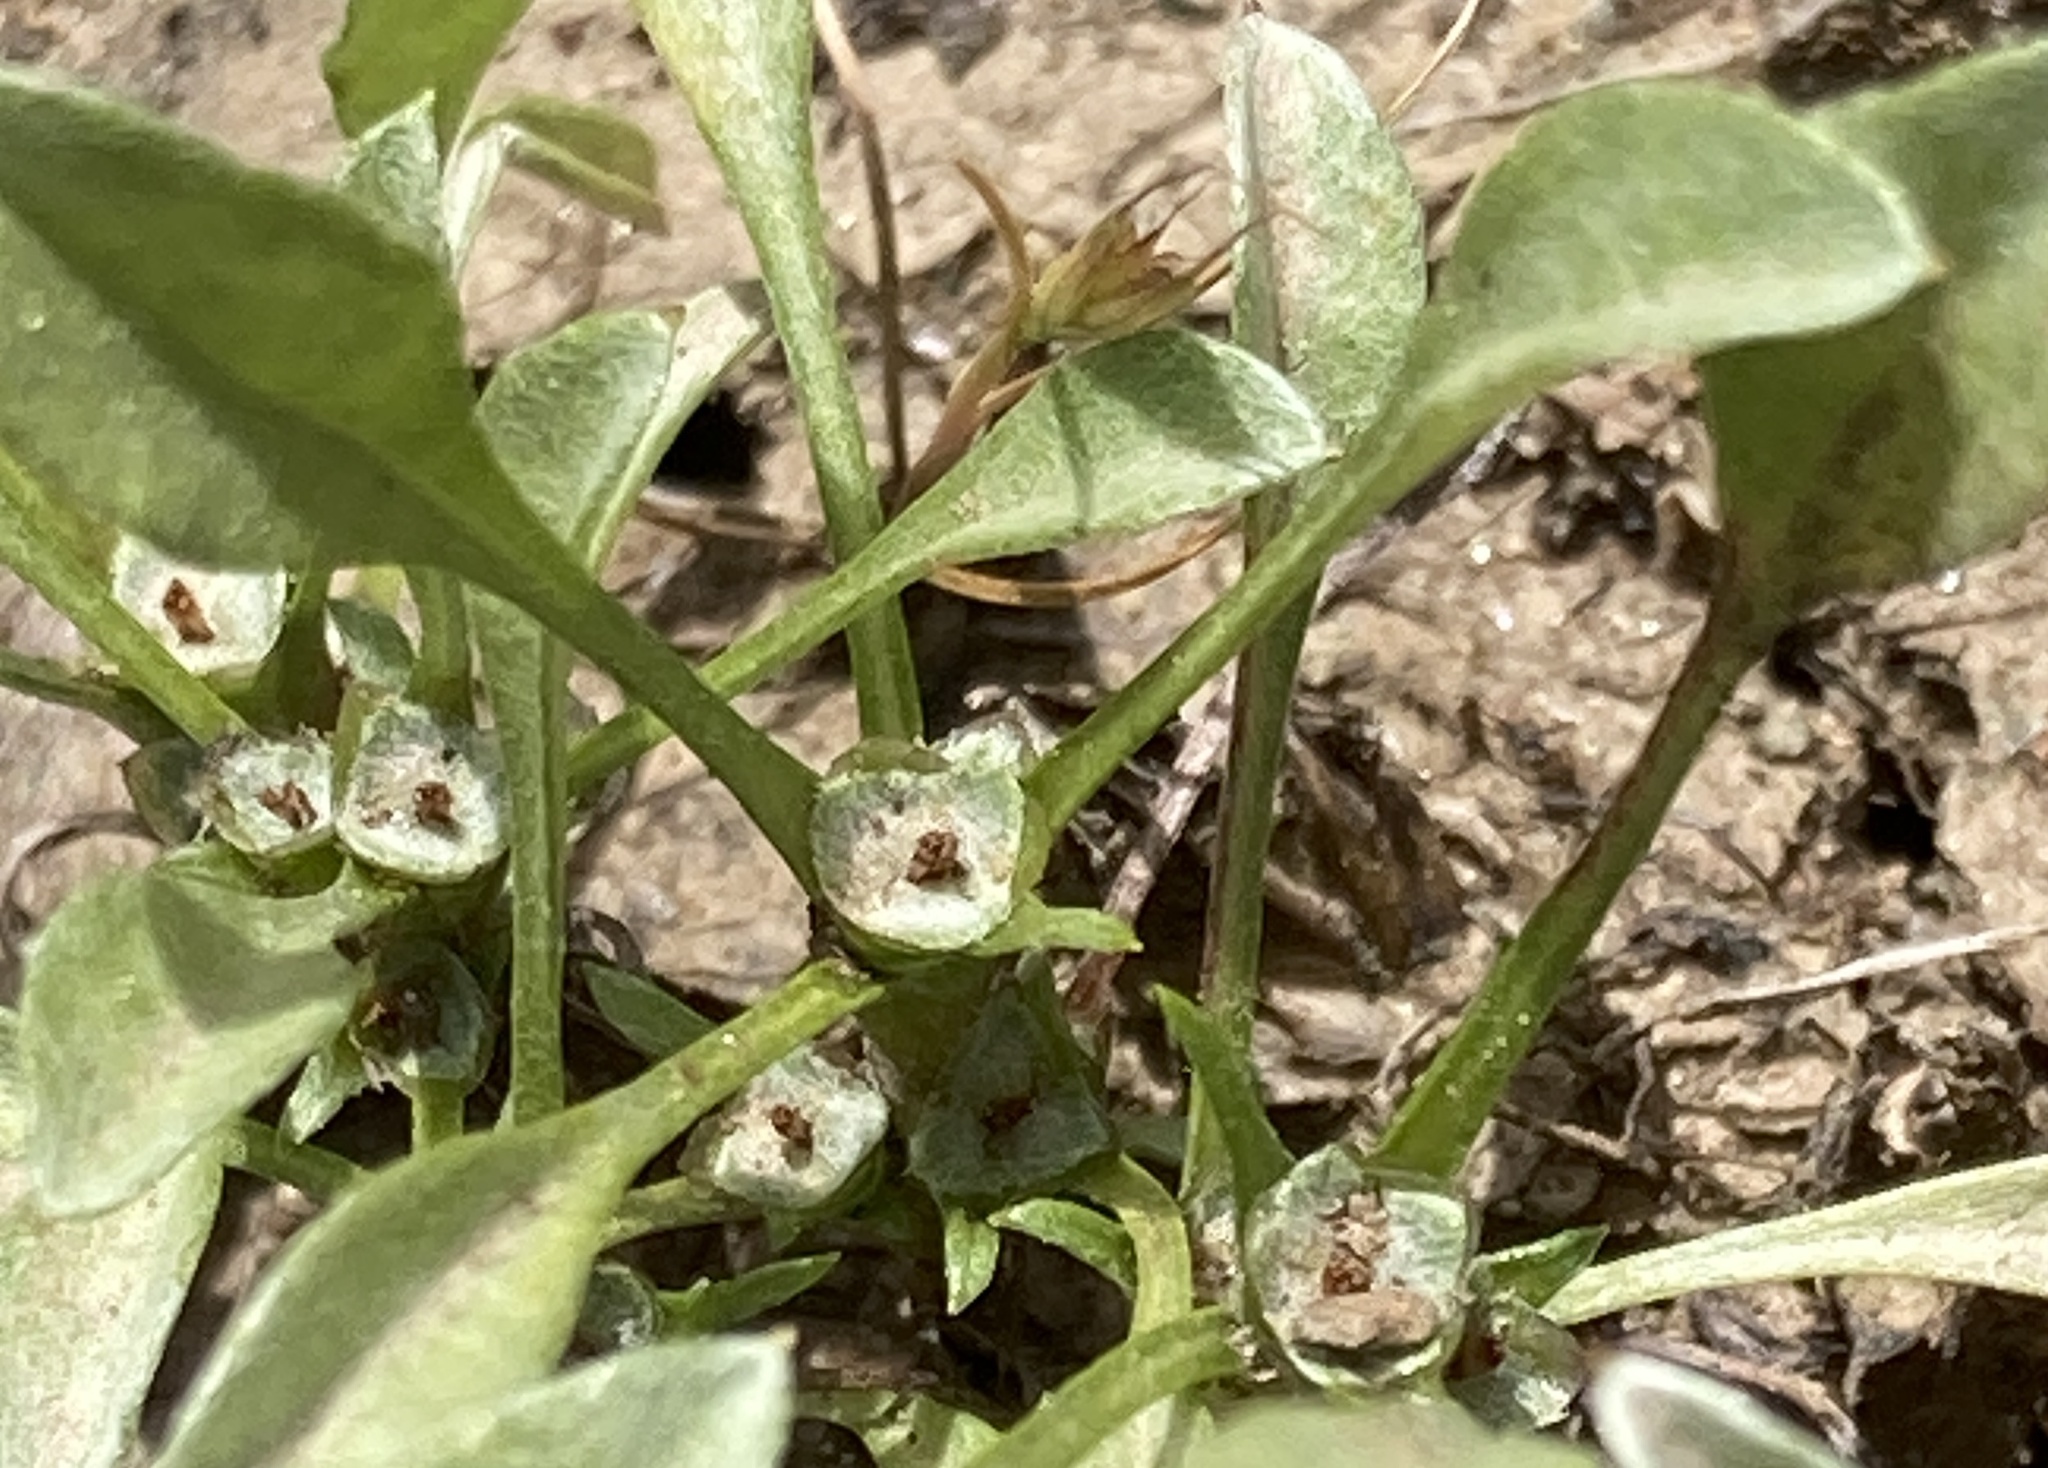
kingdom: Plantae
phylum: Tracheophyta
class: Magnoliopsida
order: Asterales
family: Asteraceae
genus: Hesperevax
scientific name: Hesperevax sparsiflora
